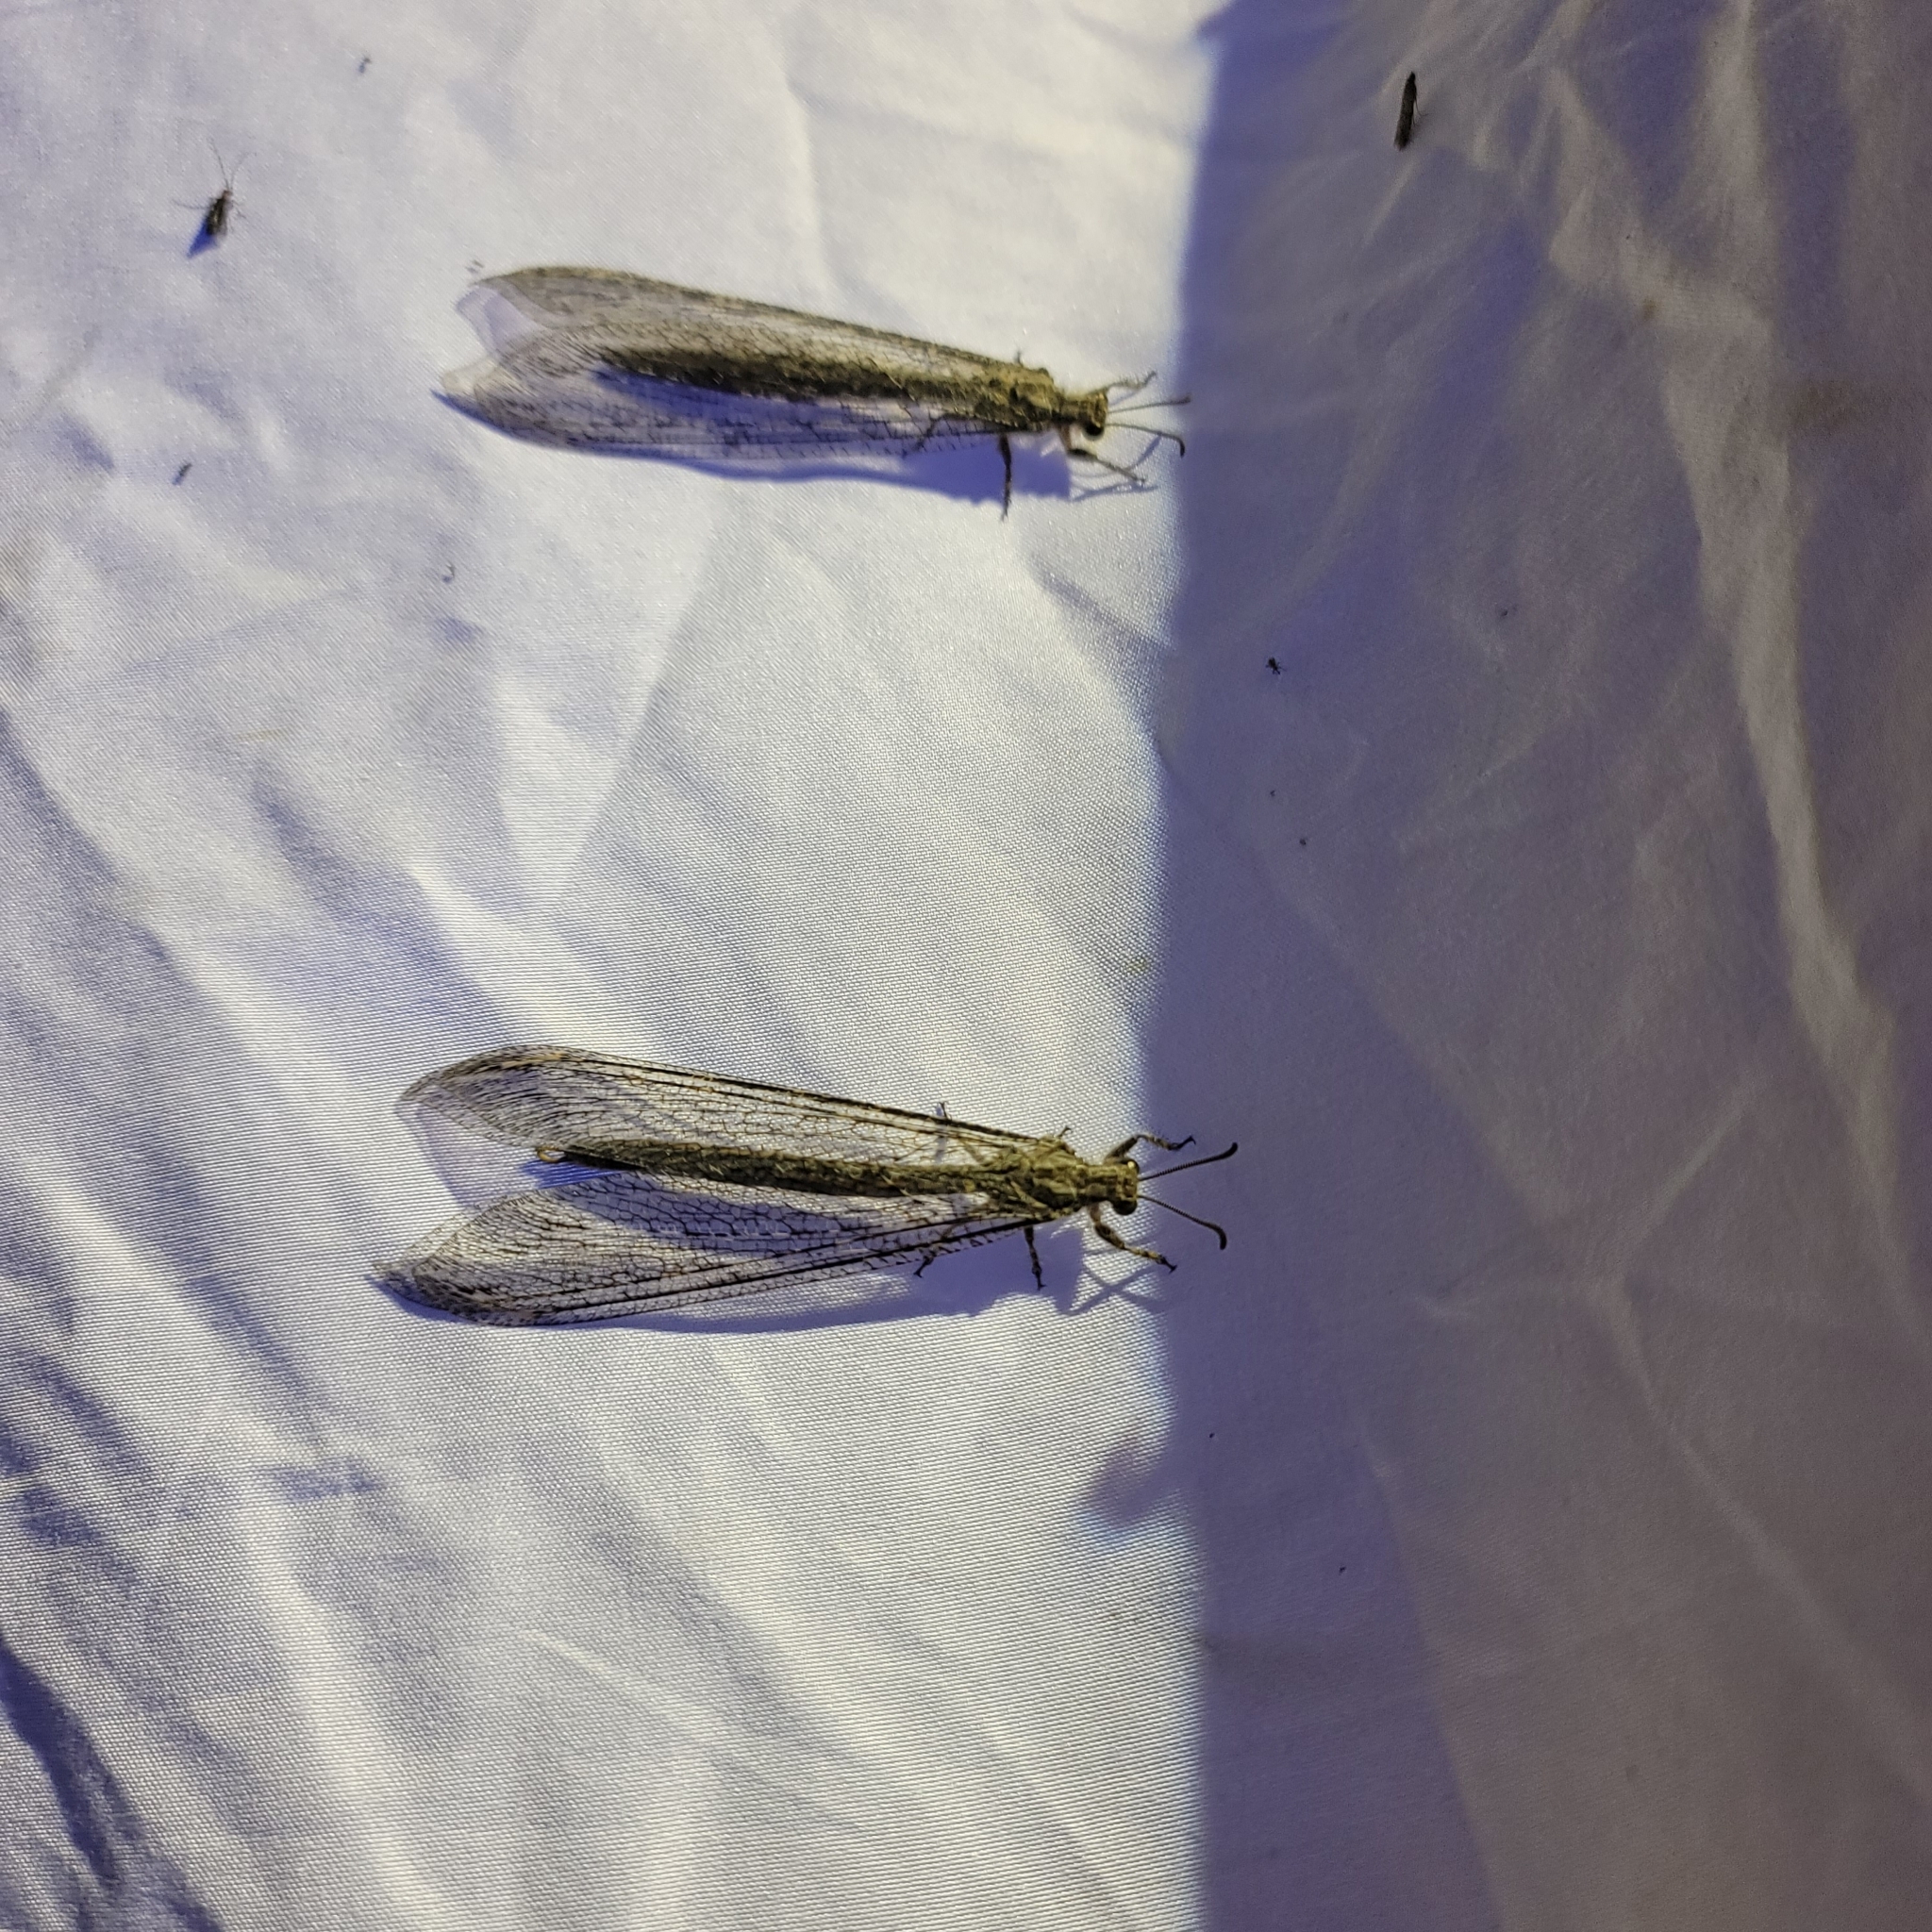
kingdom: Animalia
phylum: Arthropoda
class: Insecta
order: Neuroptera
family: Myrmeleontidae
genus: Vella
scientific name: Vella fallax
